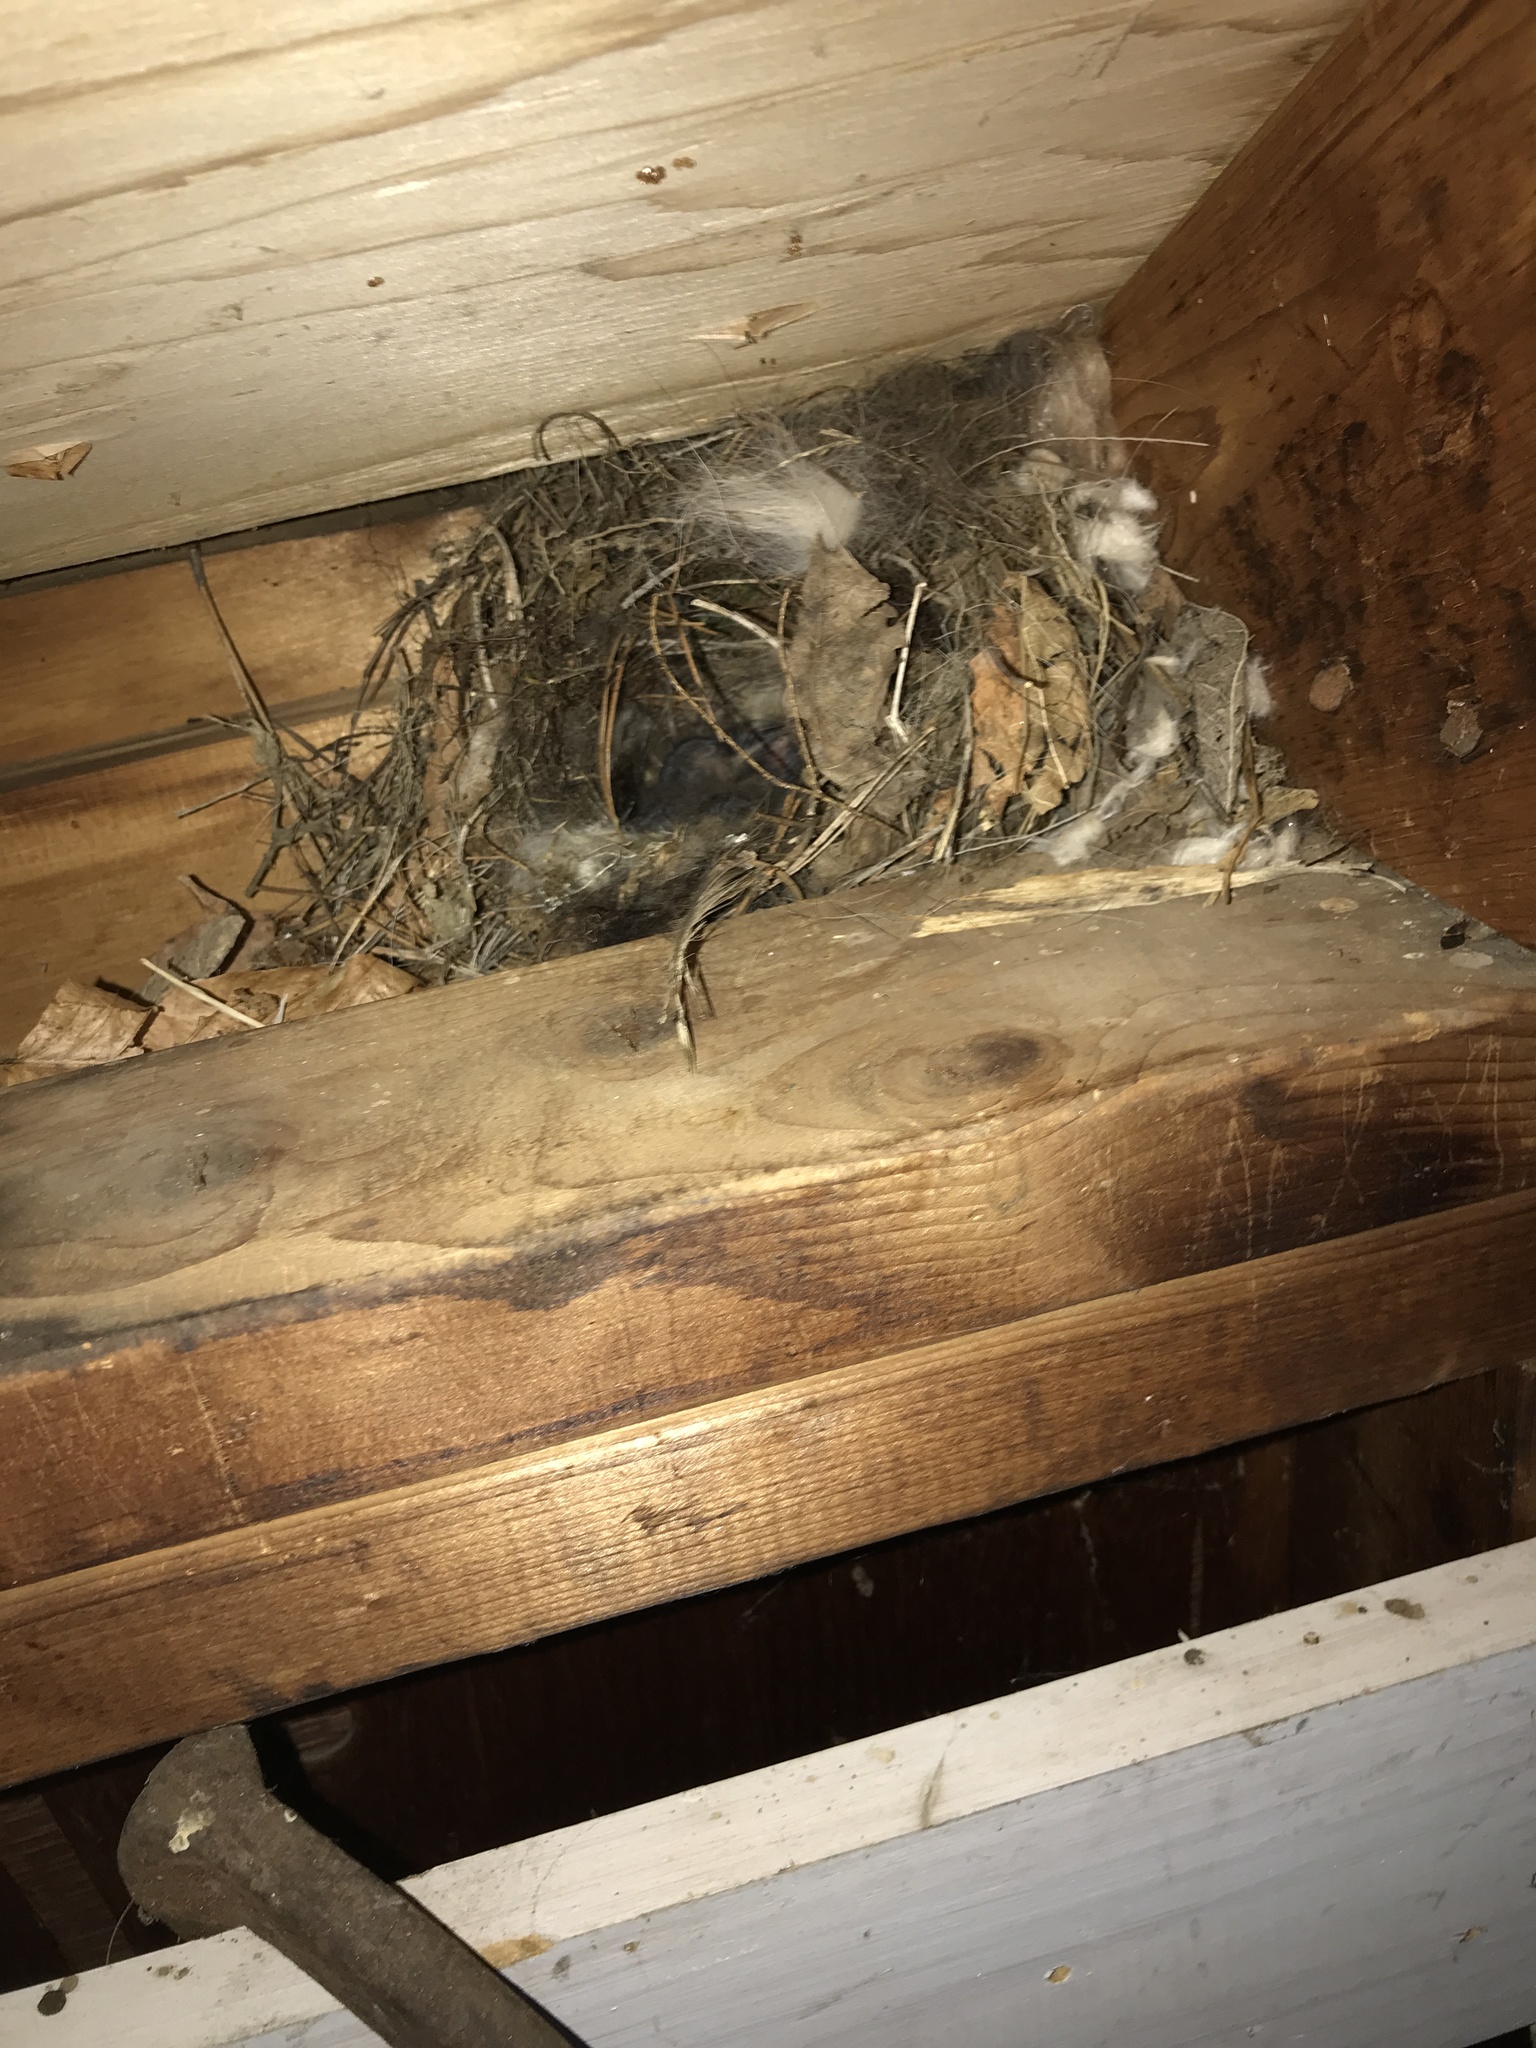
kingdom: Animalia
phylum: Chordata
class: Aves
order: Passeriformes
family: Troglodytidae
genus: Thryothorus
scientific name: Thryothorus ludovicianus
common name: Carolina wren
